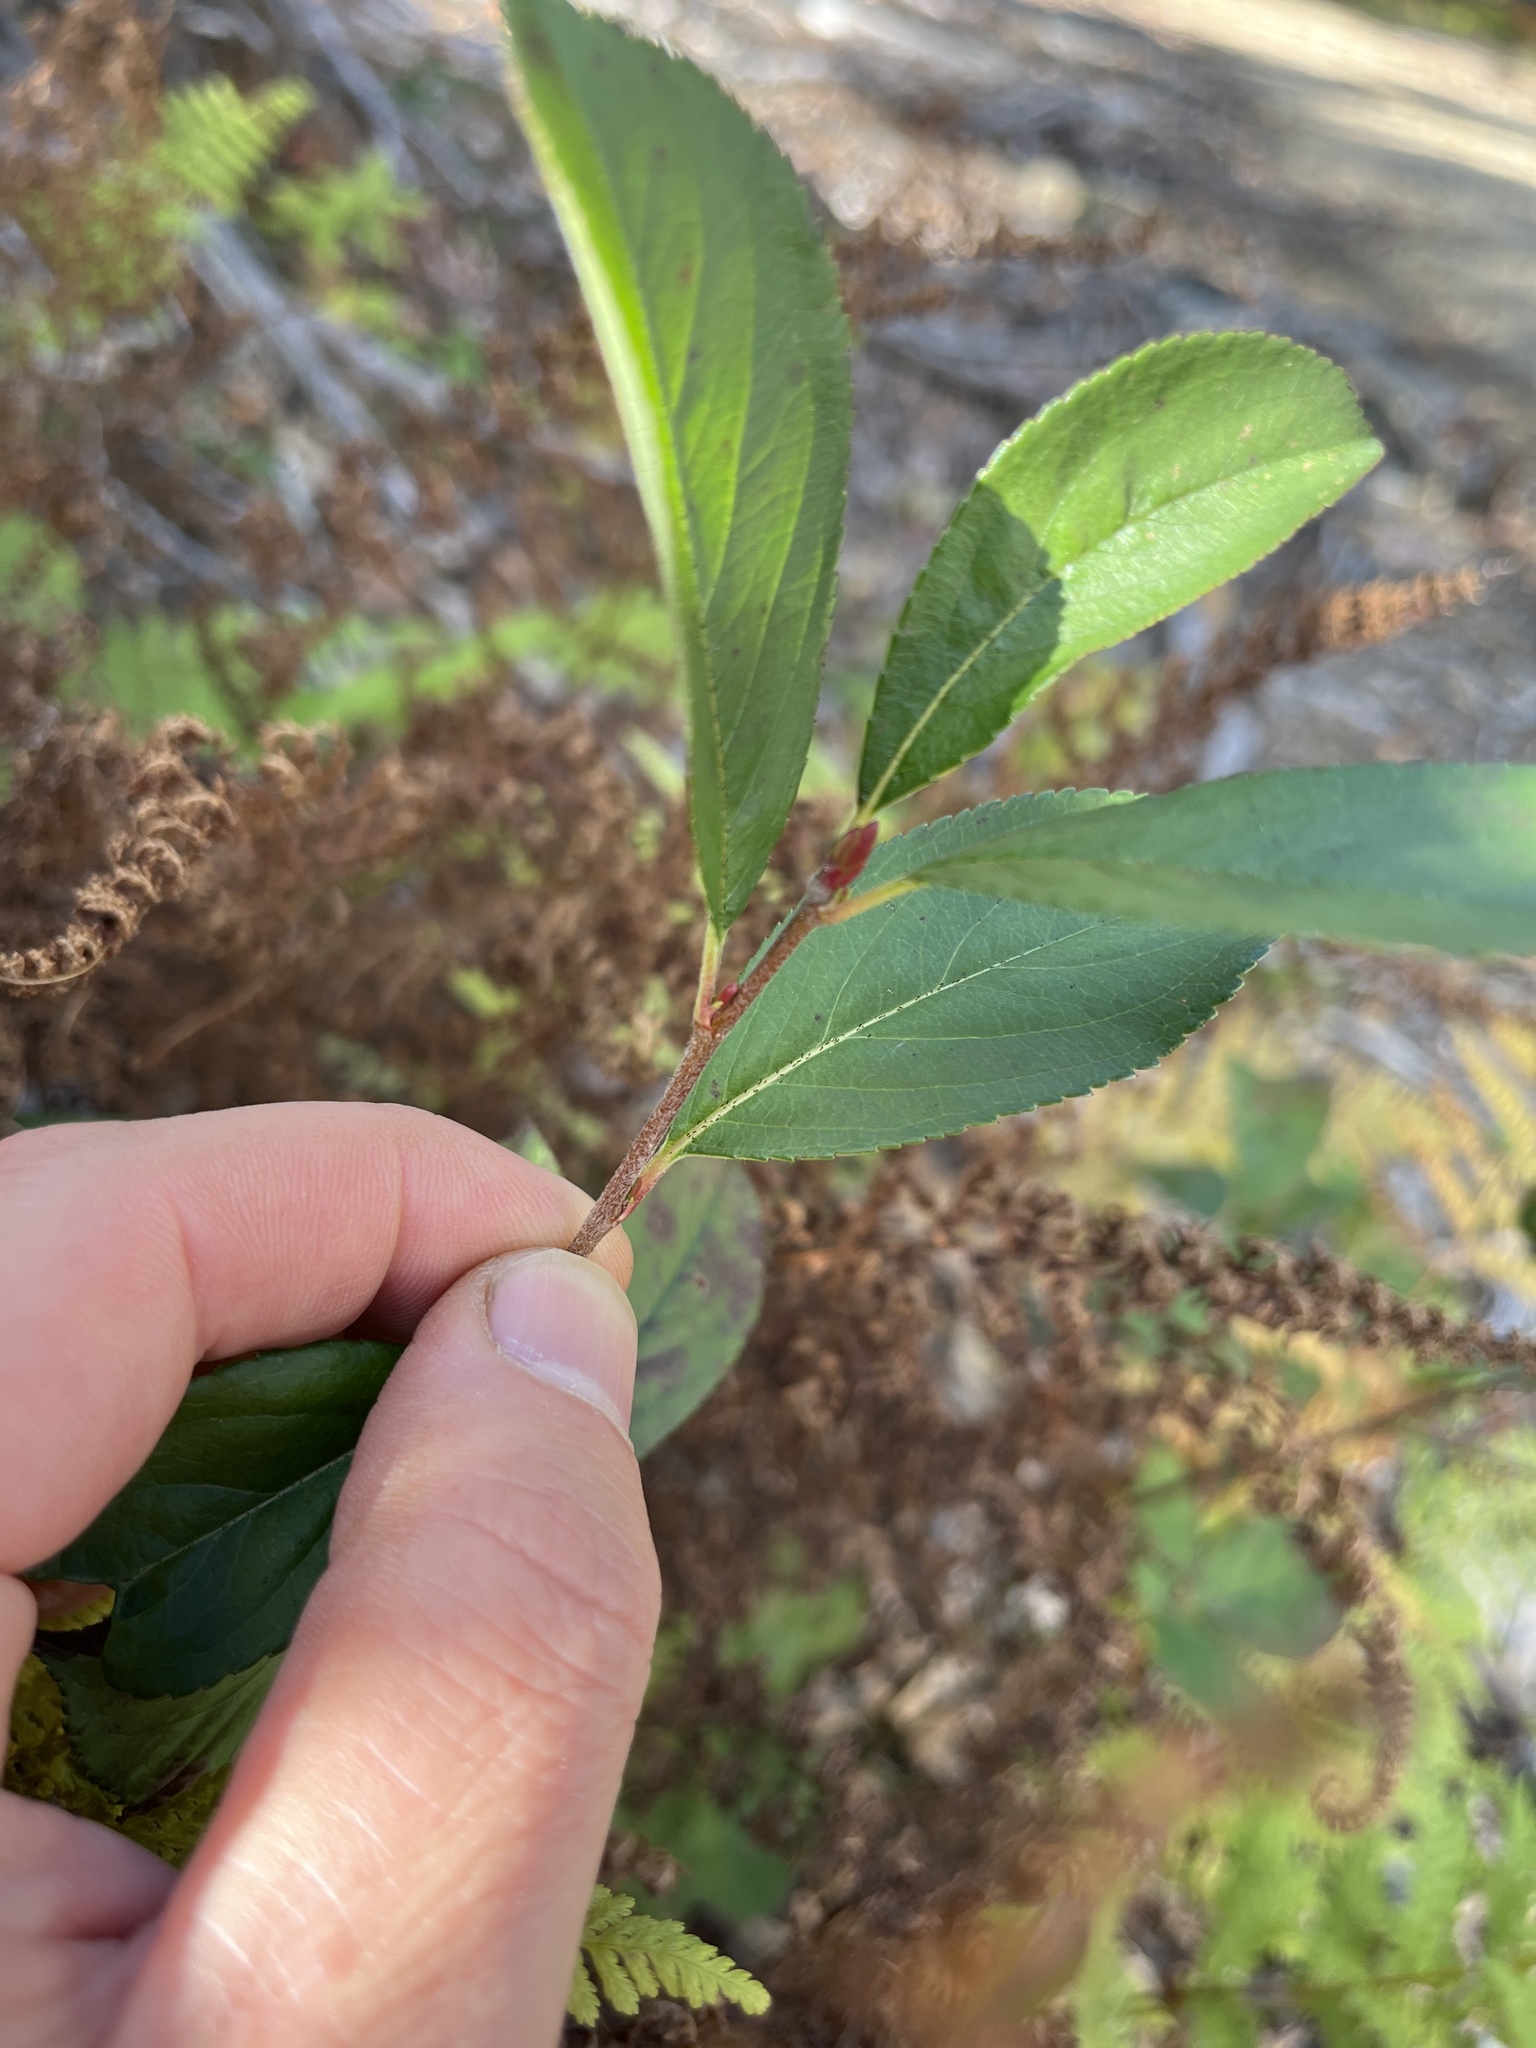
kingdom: Plantae
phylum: Tracheophyta
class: Magnoliopsida
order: Rosales
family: Rosaceae
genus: Aronia
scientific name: Aronia melanocarpa
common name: Black chokeberry
